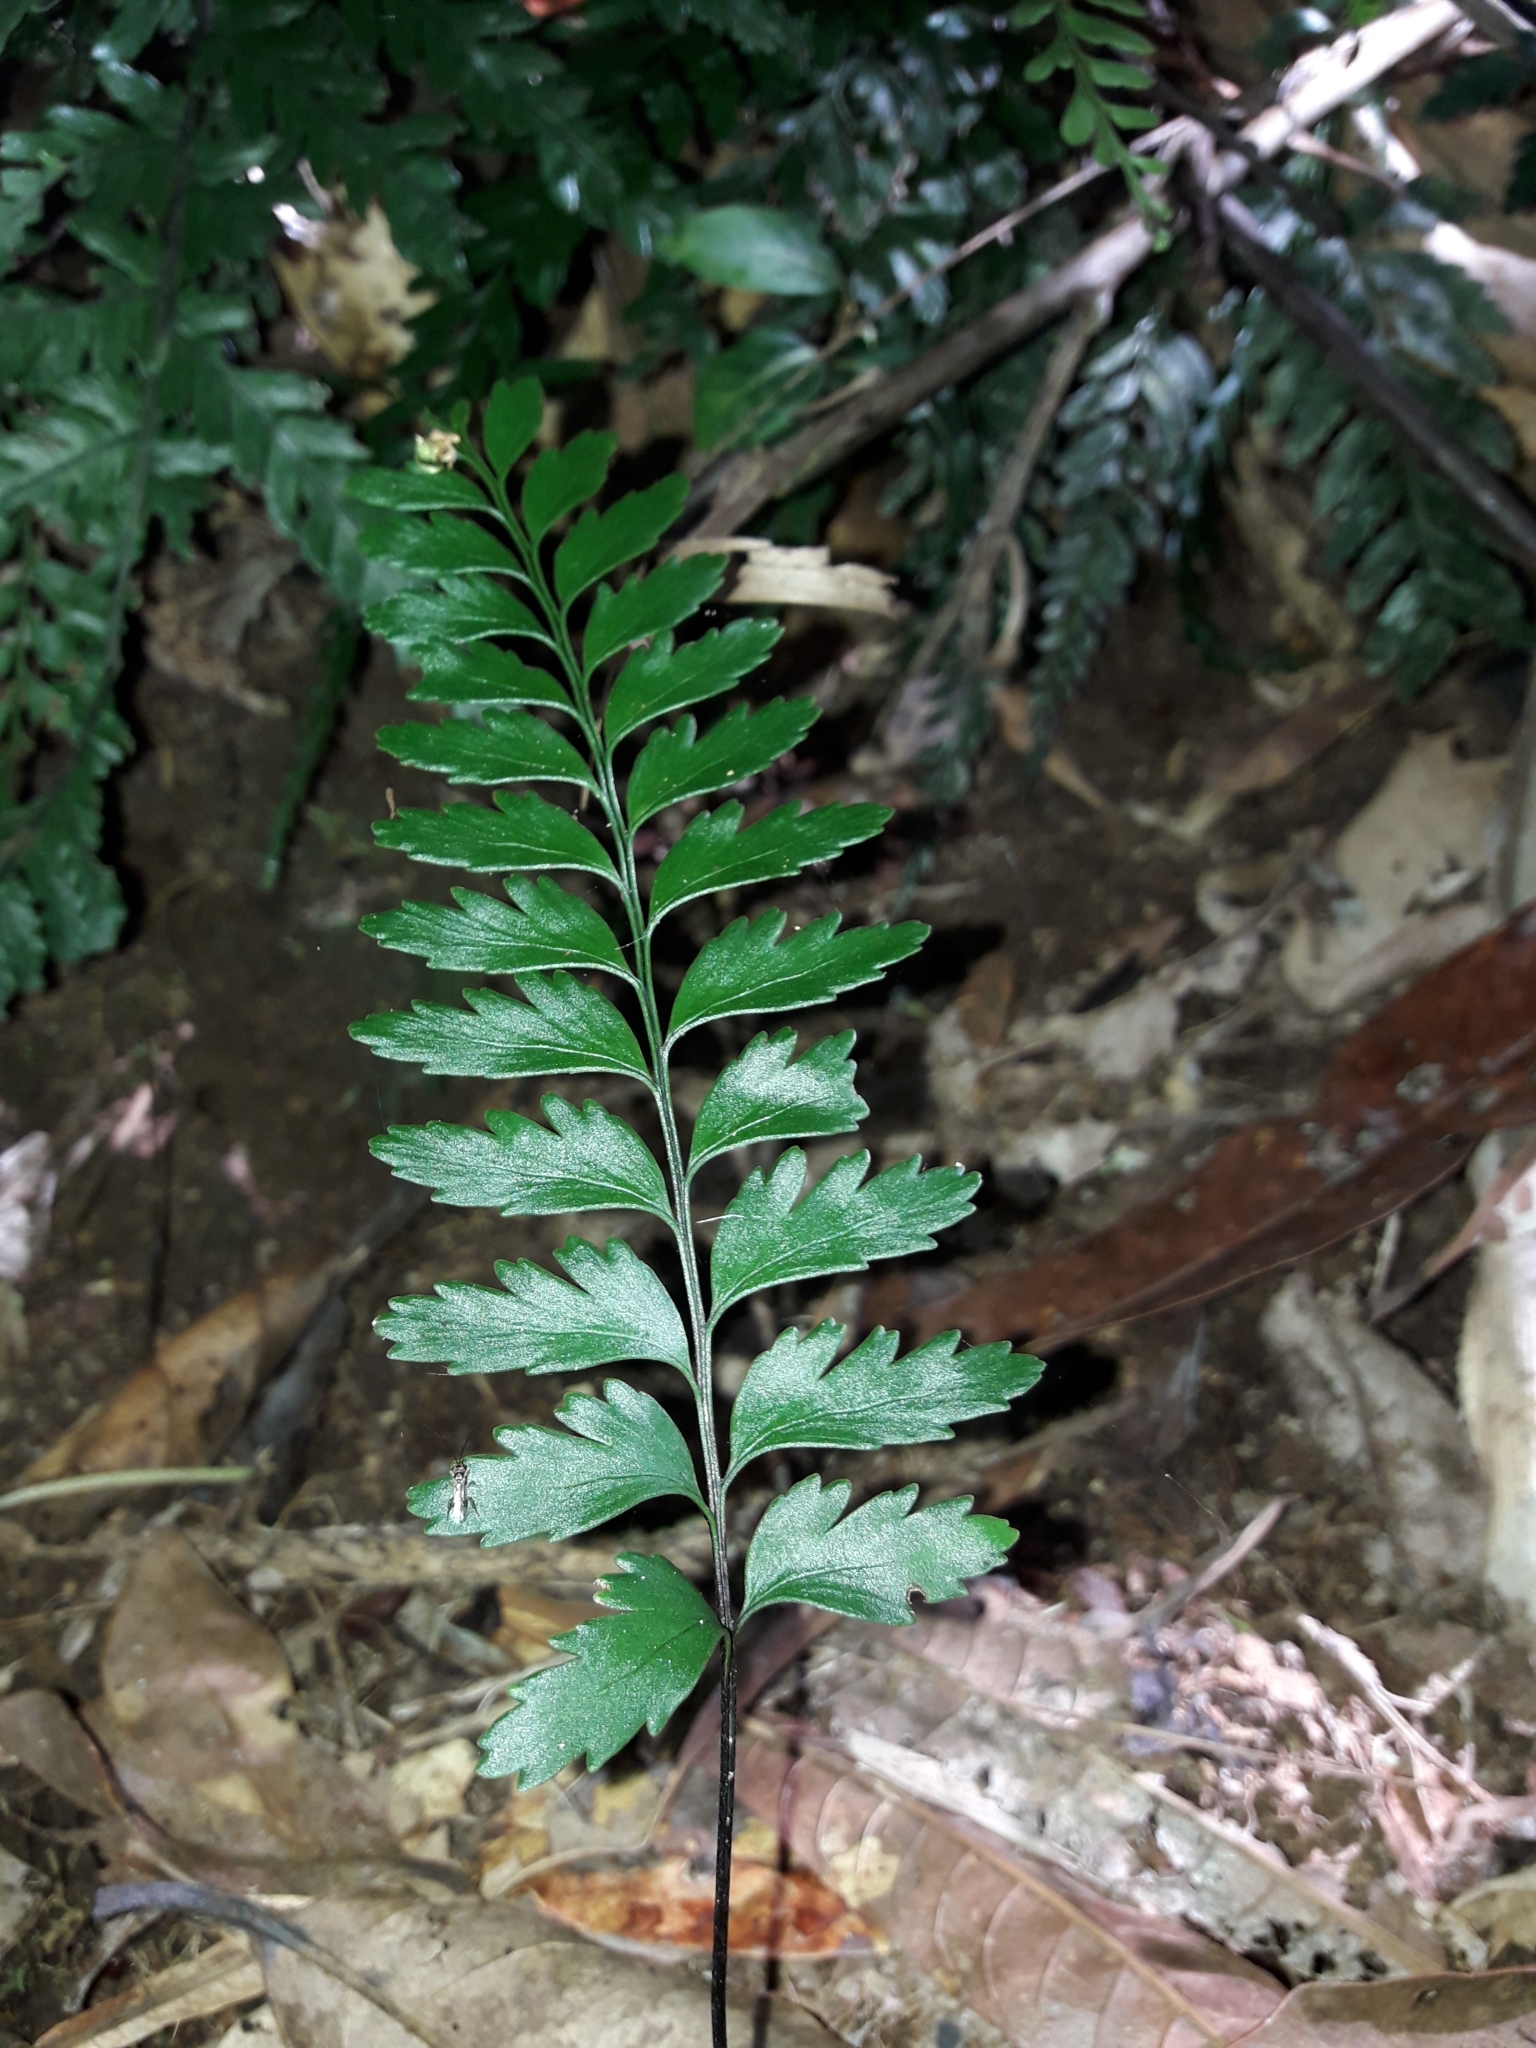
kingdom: Plantae
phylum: Tracheophyta
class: Polypodiopsida
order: Polypodiales
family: Pteridaceae
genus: Austrogramme
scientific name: Austrogramme decipiens
